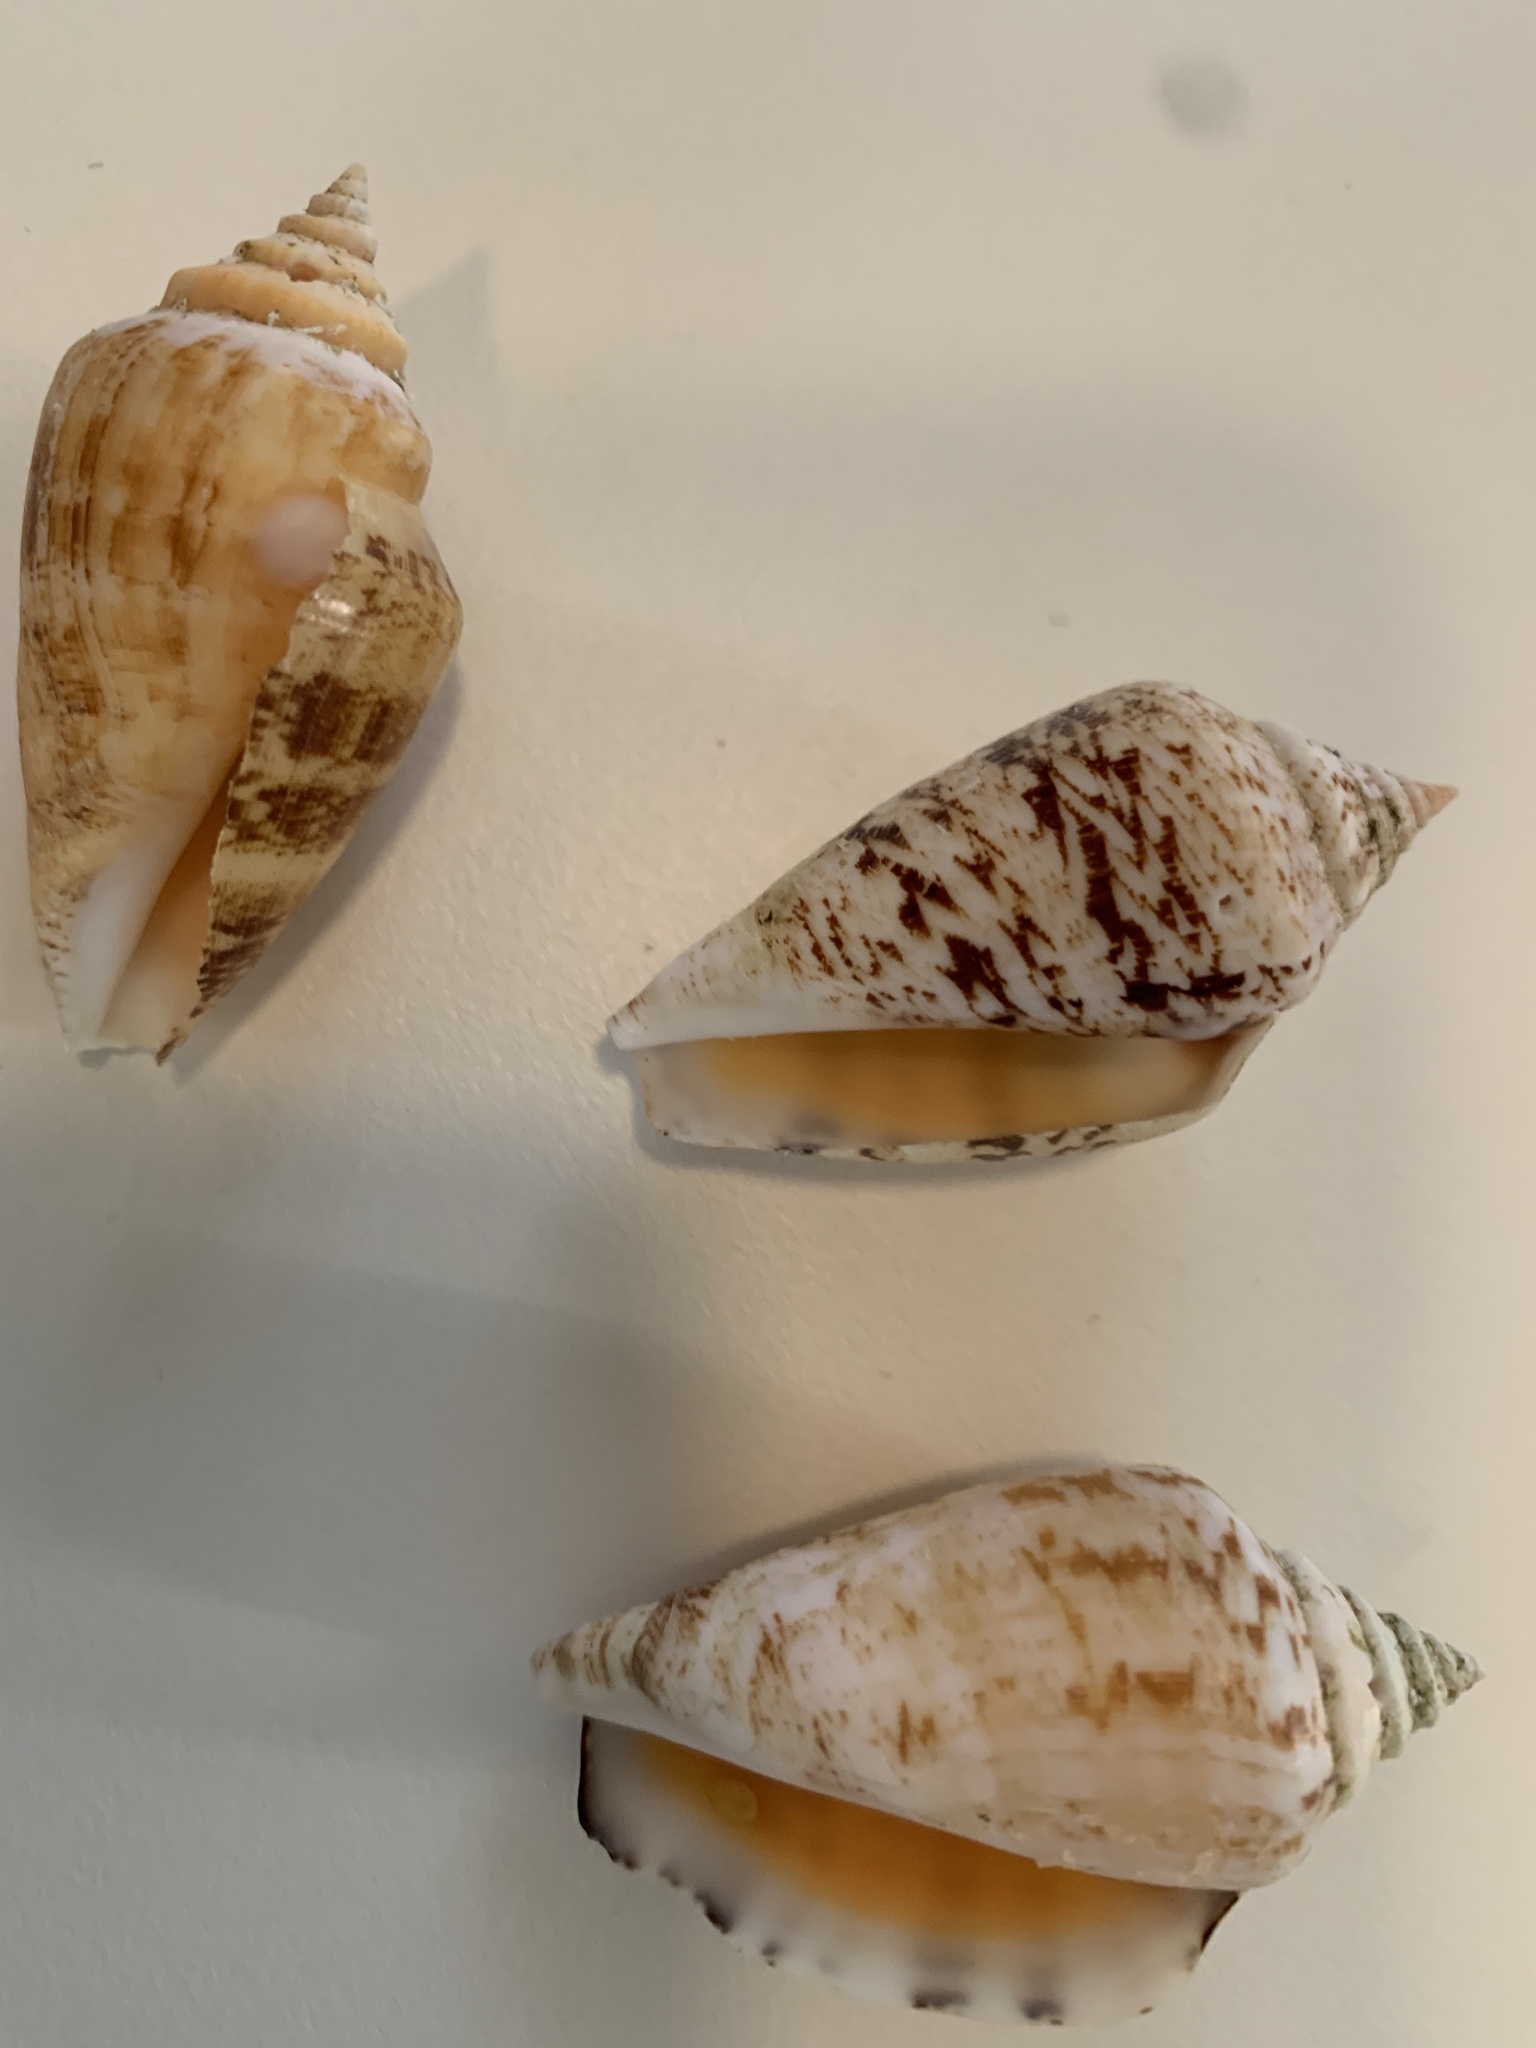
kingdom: Animalia
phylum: Mollusca
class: Gastropoda
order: Littorinimorpha
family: Strombidae
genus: Conomurex
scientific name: Conomurex persicus
